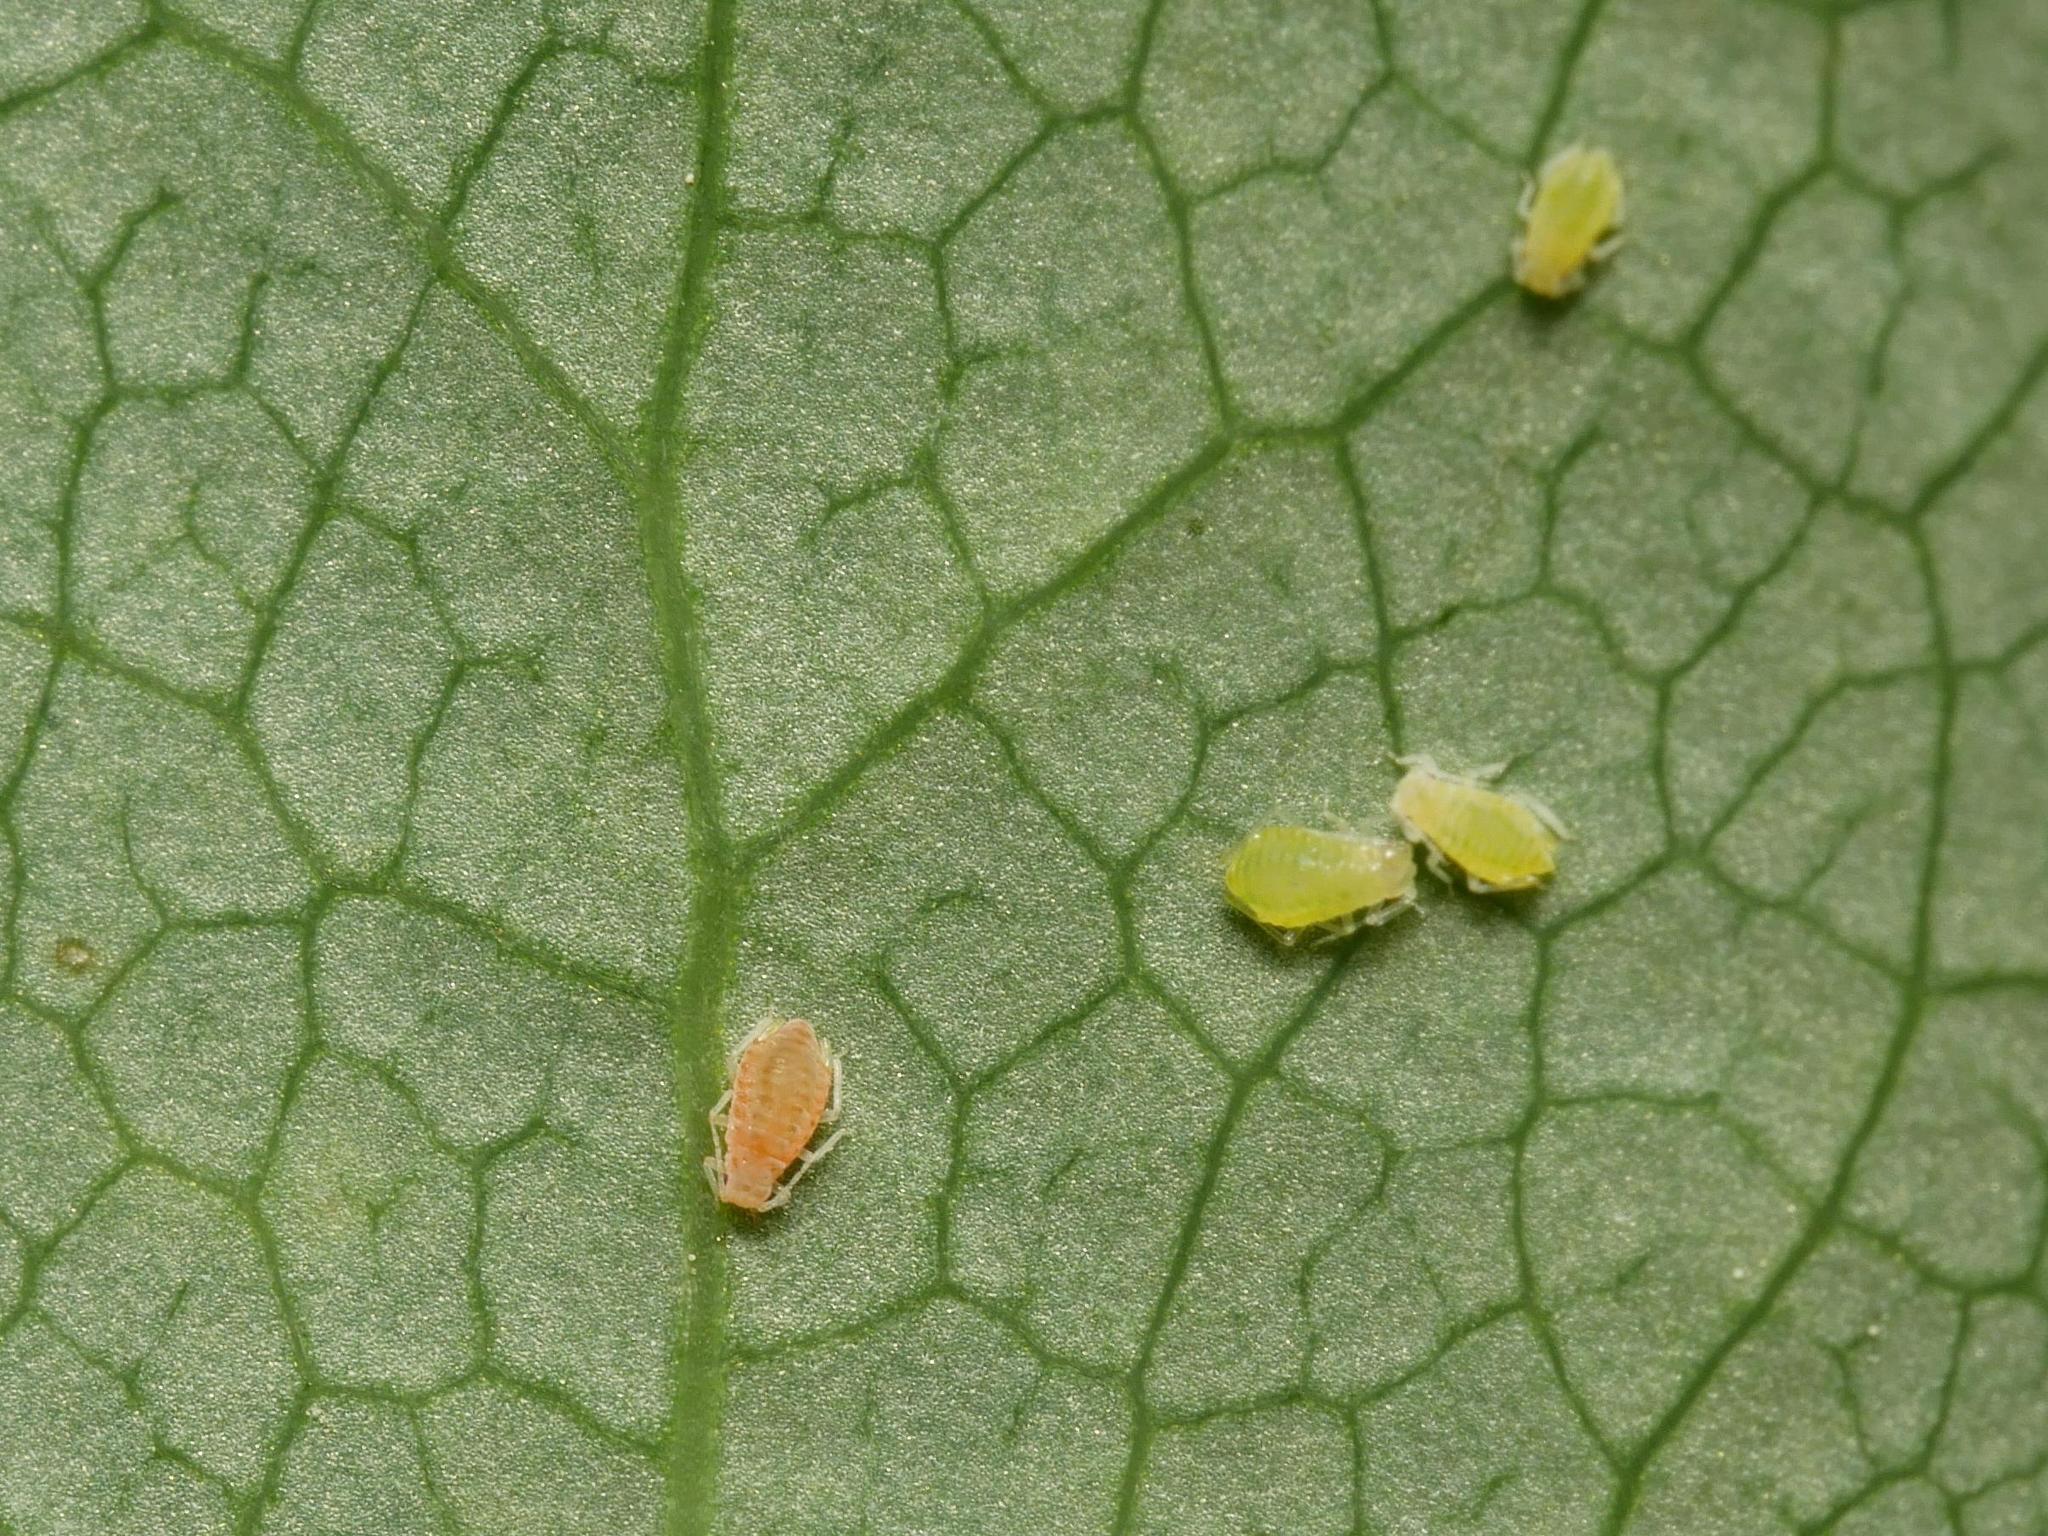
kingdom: Animalia
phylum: Arthropoda
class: Insecta
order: Hemiptera
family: Aphididae
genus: Liosomaphis
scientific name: Liosomaphis berberidis
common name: Barberry aphid
